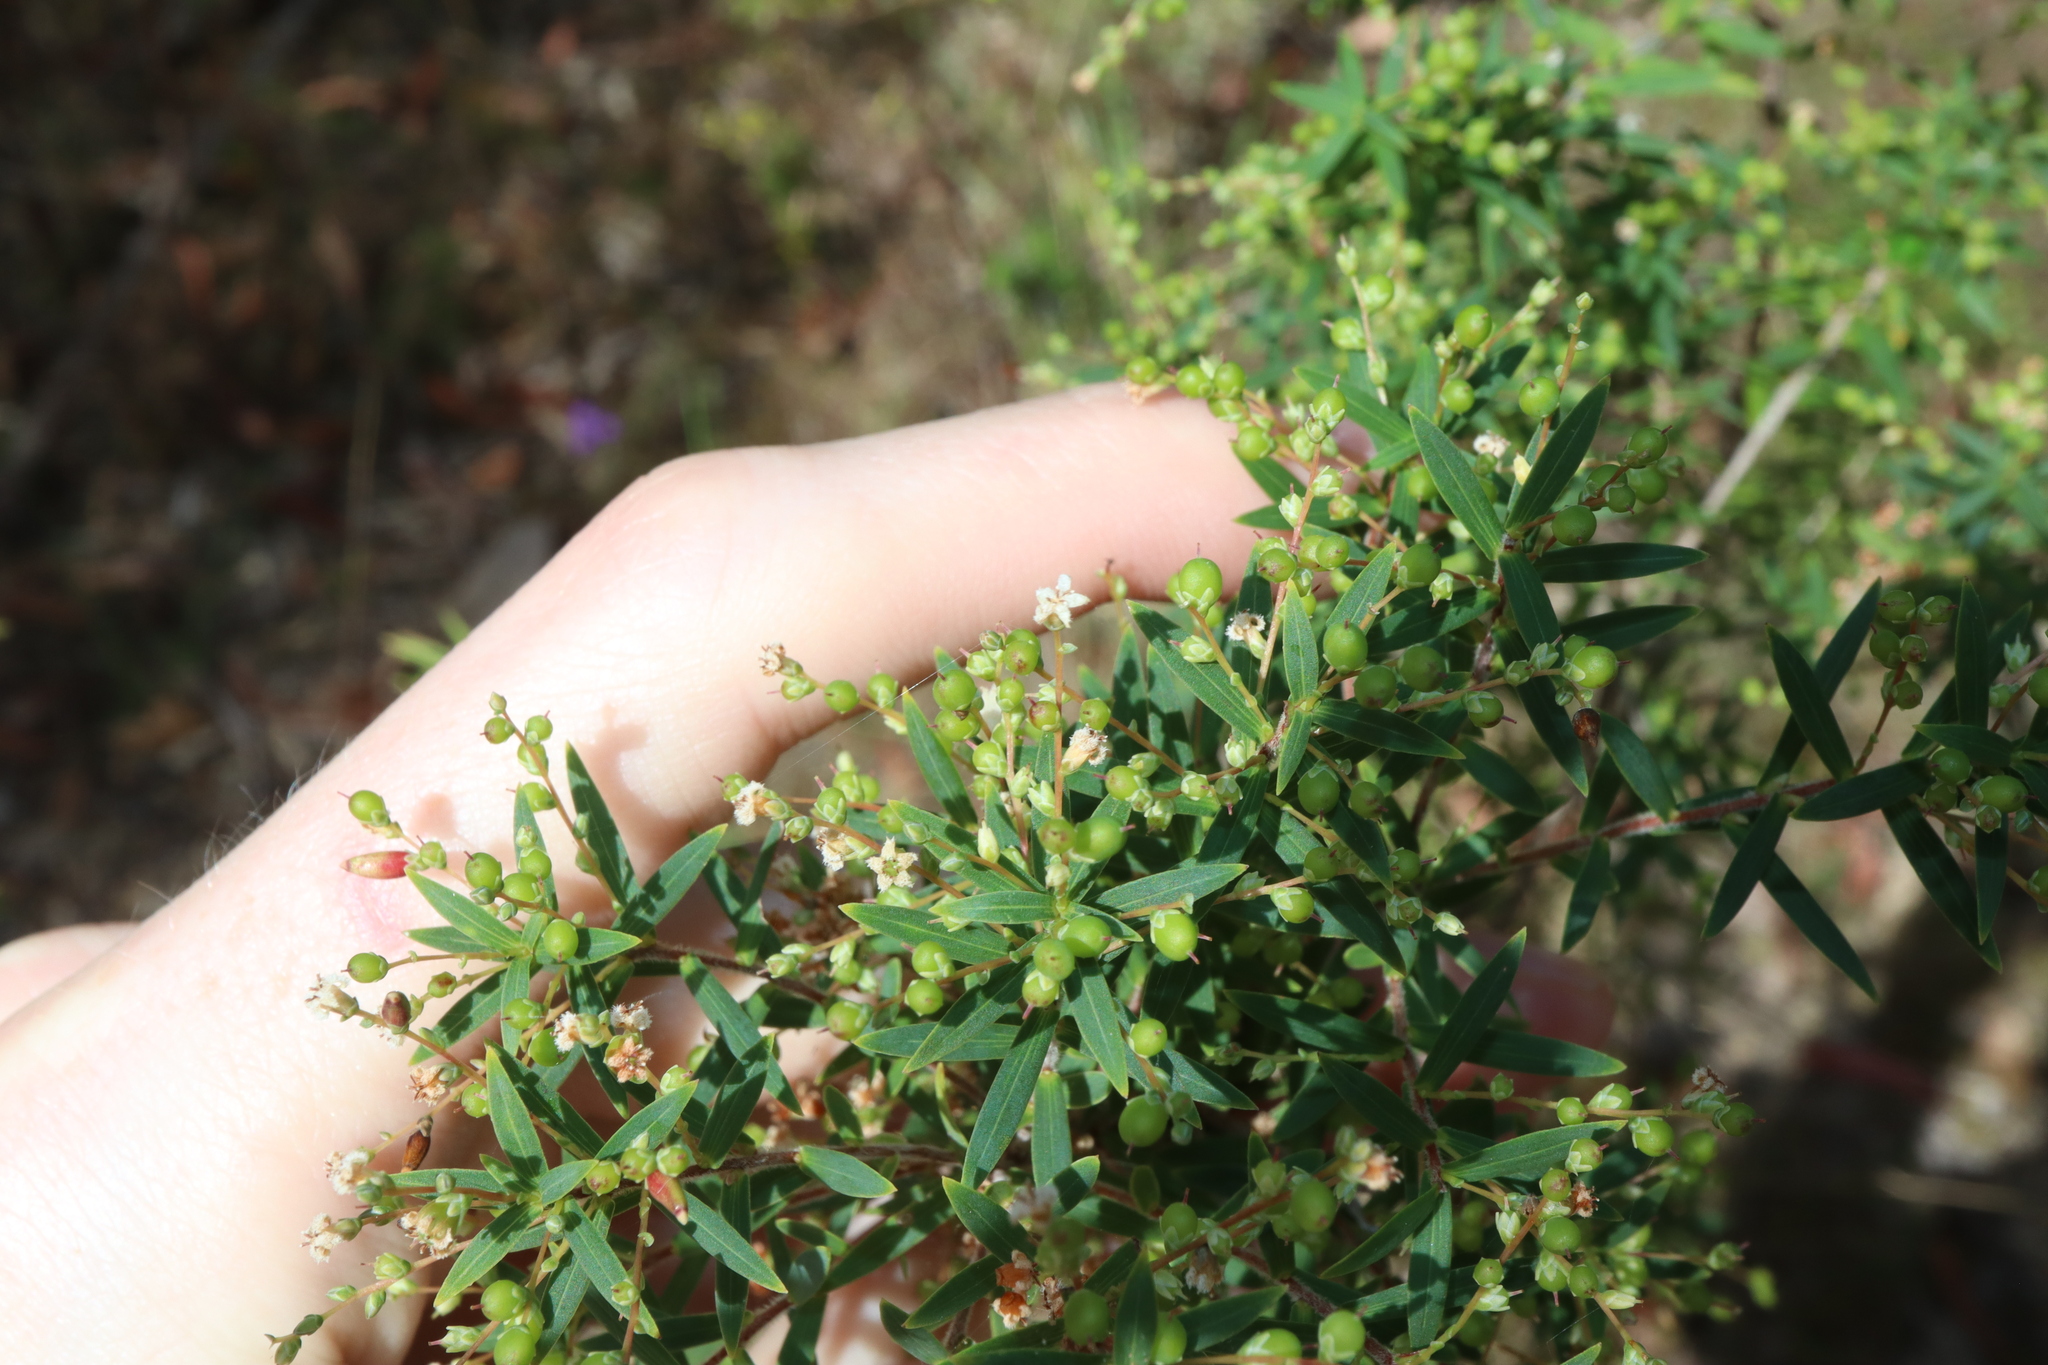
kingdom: Plantae
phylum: Tracheophyta
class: Magnoliopsida
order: Ericales
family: Ericaceae
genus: Leucopogon
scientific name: Leucopogon lanceolatus
